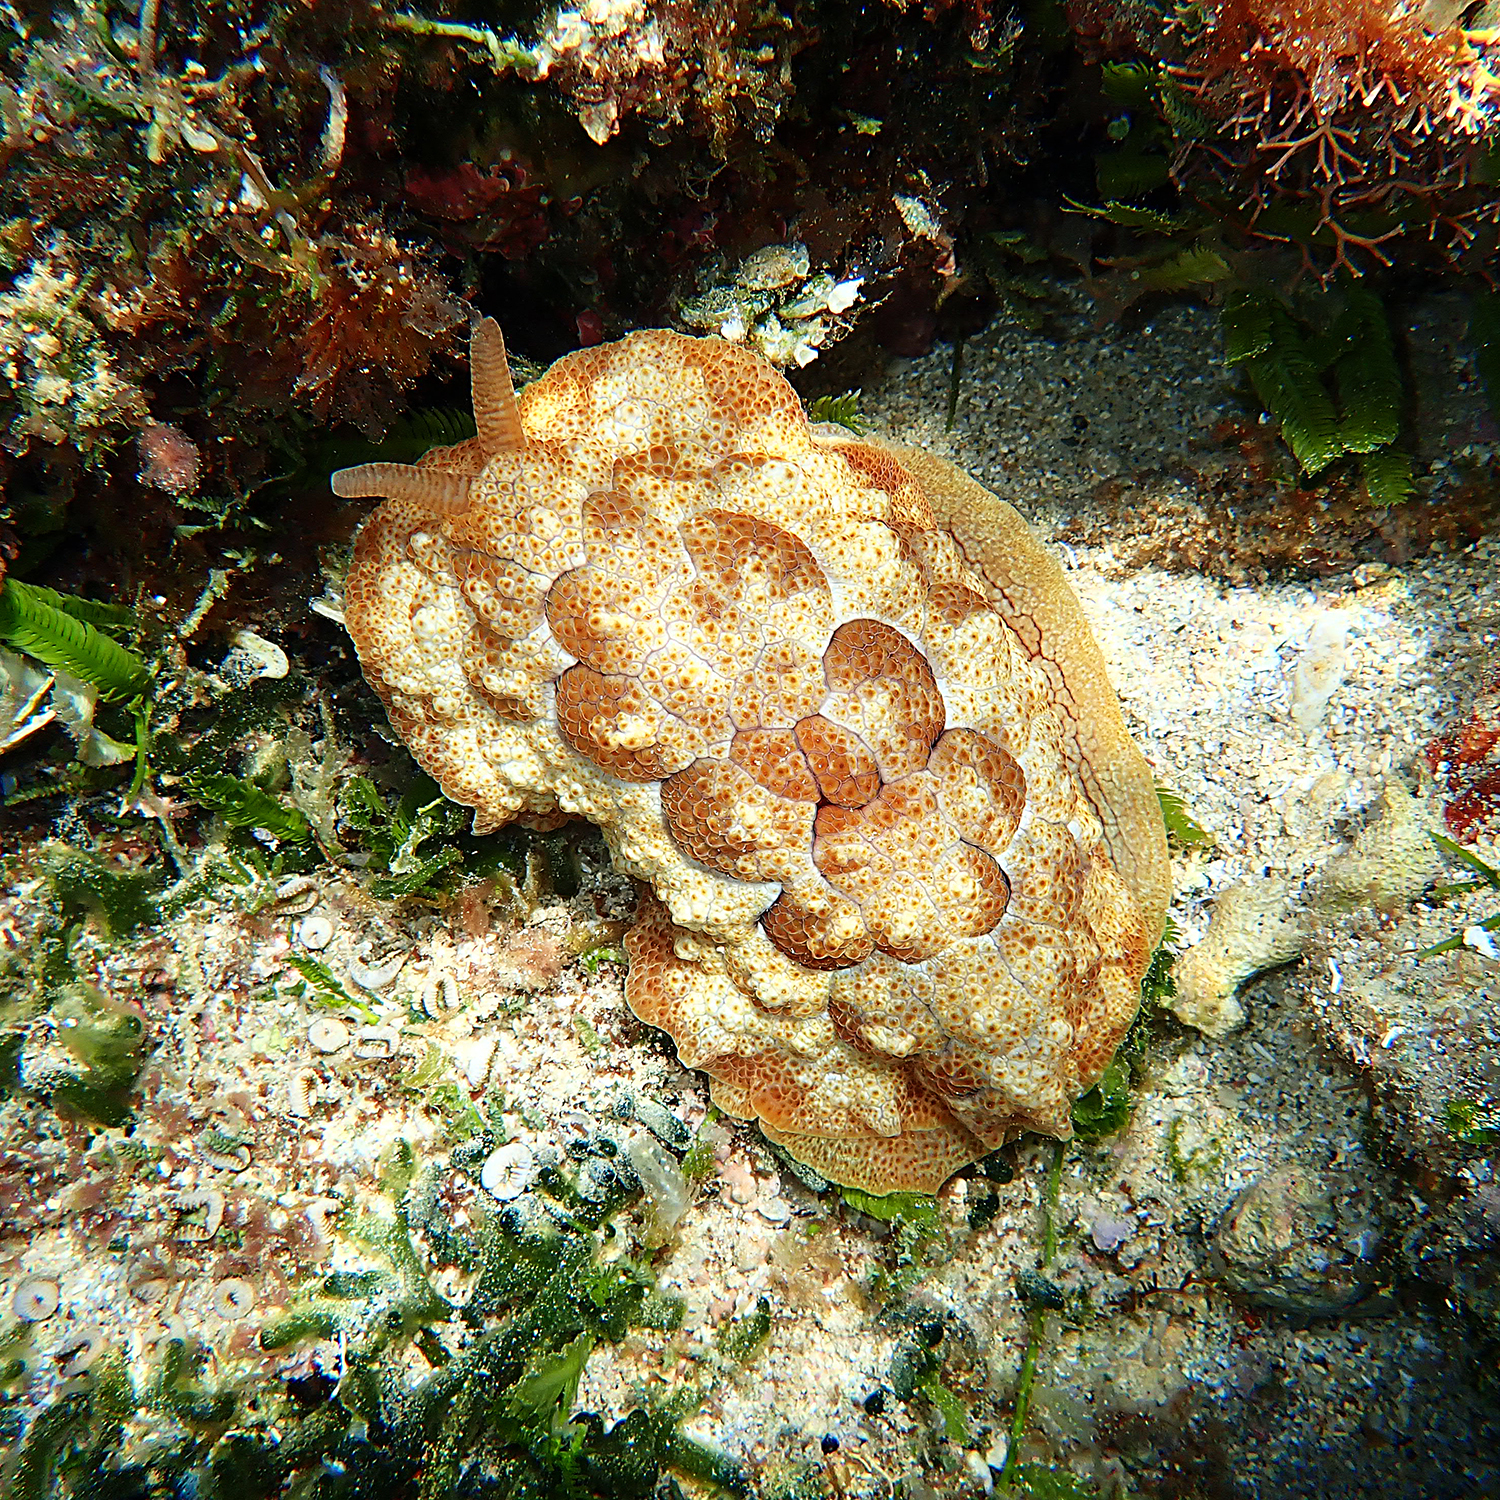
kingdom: Animalia
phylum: Mollusca
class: Gastropoda
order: Pleurobranchida
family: Pleurobranchidae
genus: Pleurobranchus
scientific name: Pleurobranchus forskalii
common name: Forskal's side-gilled sea slug
